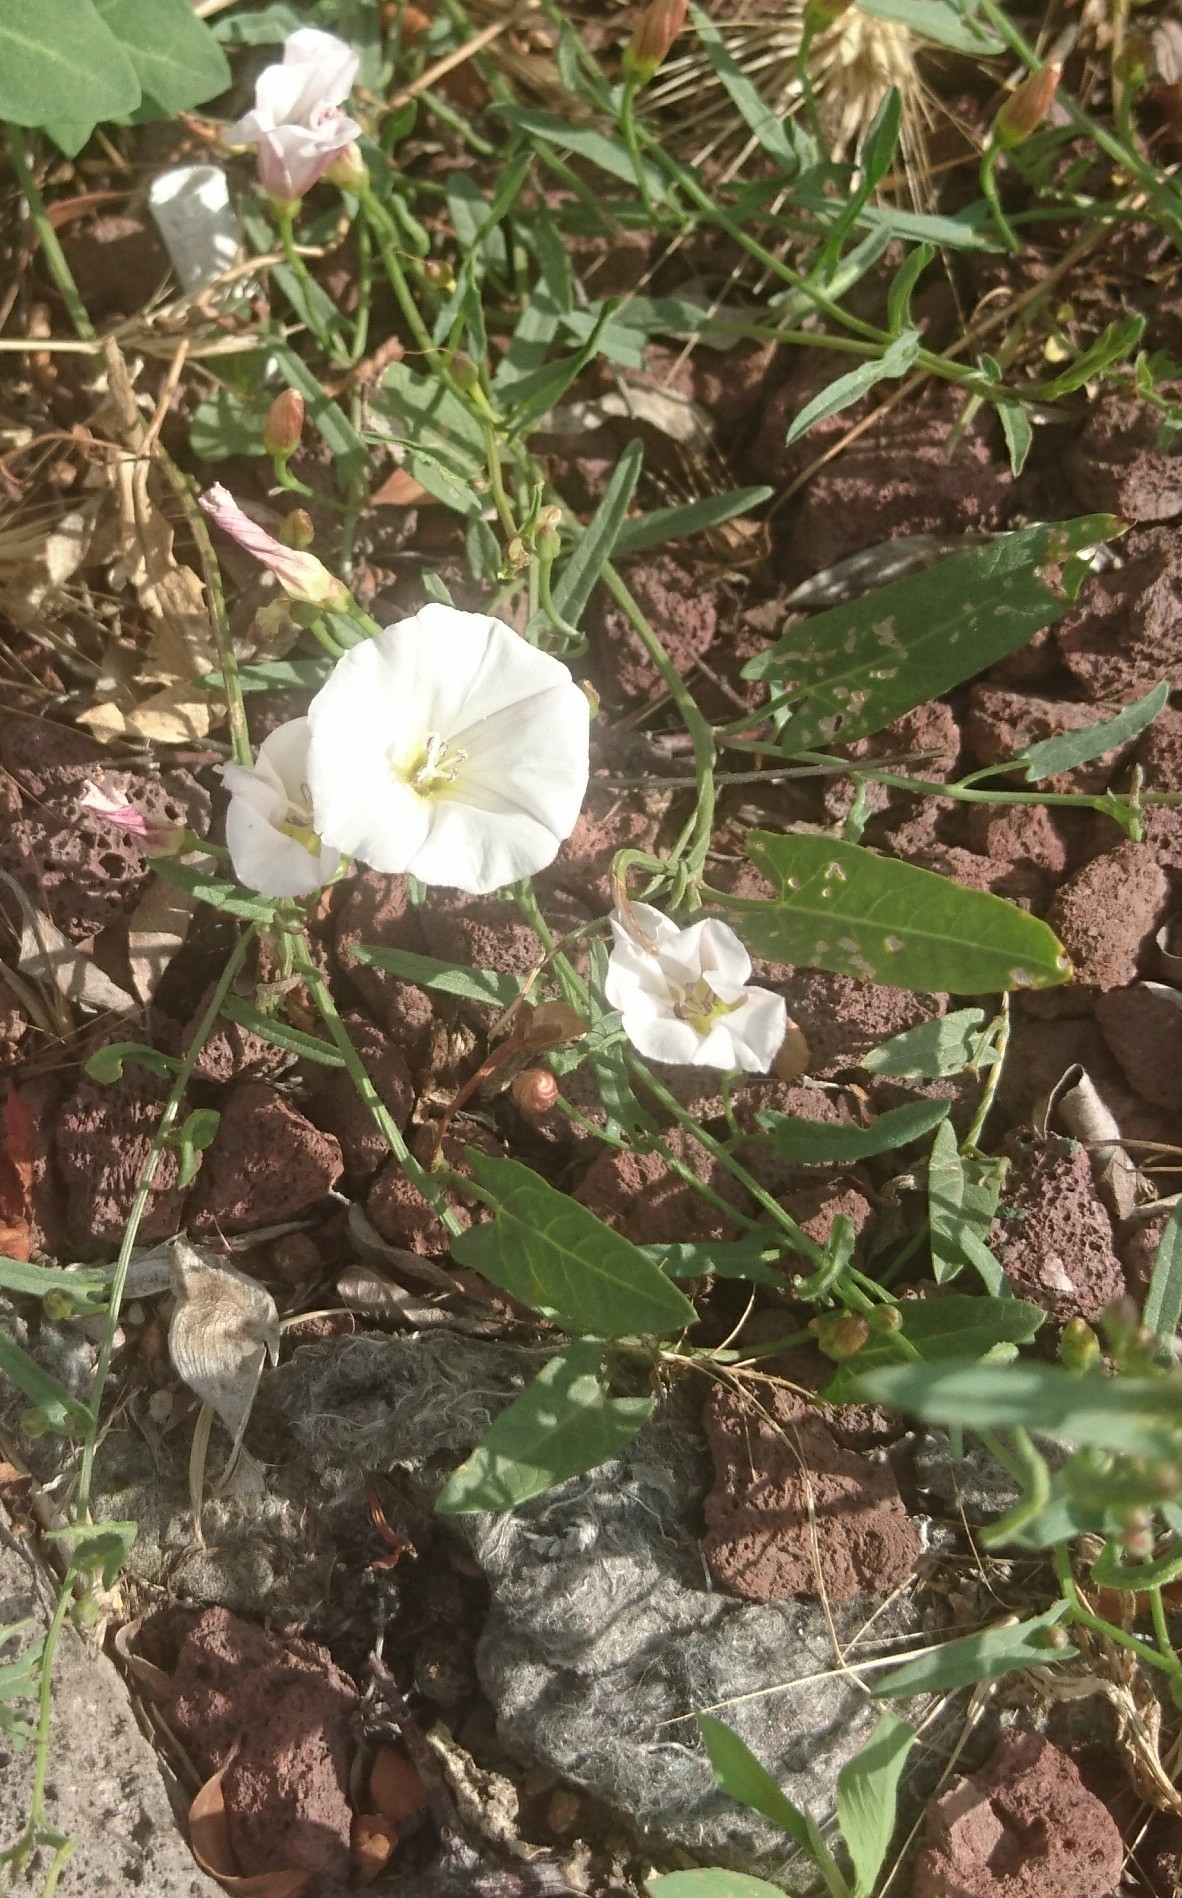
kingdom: Plantae
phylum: Tracheophyta
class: Magnoliopsida
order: Solanales
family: Convolvulaceae
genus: Convolvulus
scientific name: Convolvulus arvensis
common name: Field bindweed
